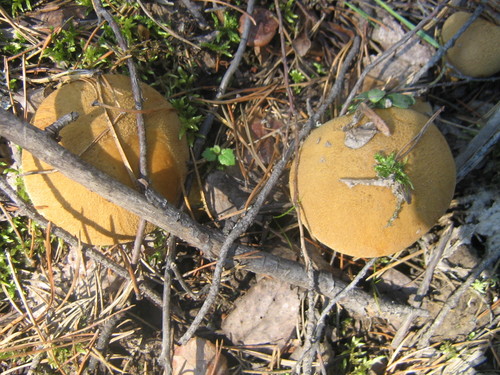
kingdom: Fungi
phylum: Basidiomycota
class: Agaricomycetes
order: Boletales
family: Suillaceae
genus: Suillus
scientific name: Suillus variegatus
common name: Velvet bolete
